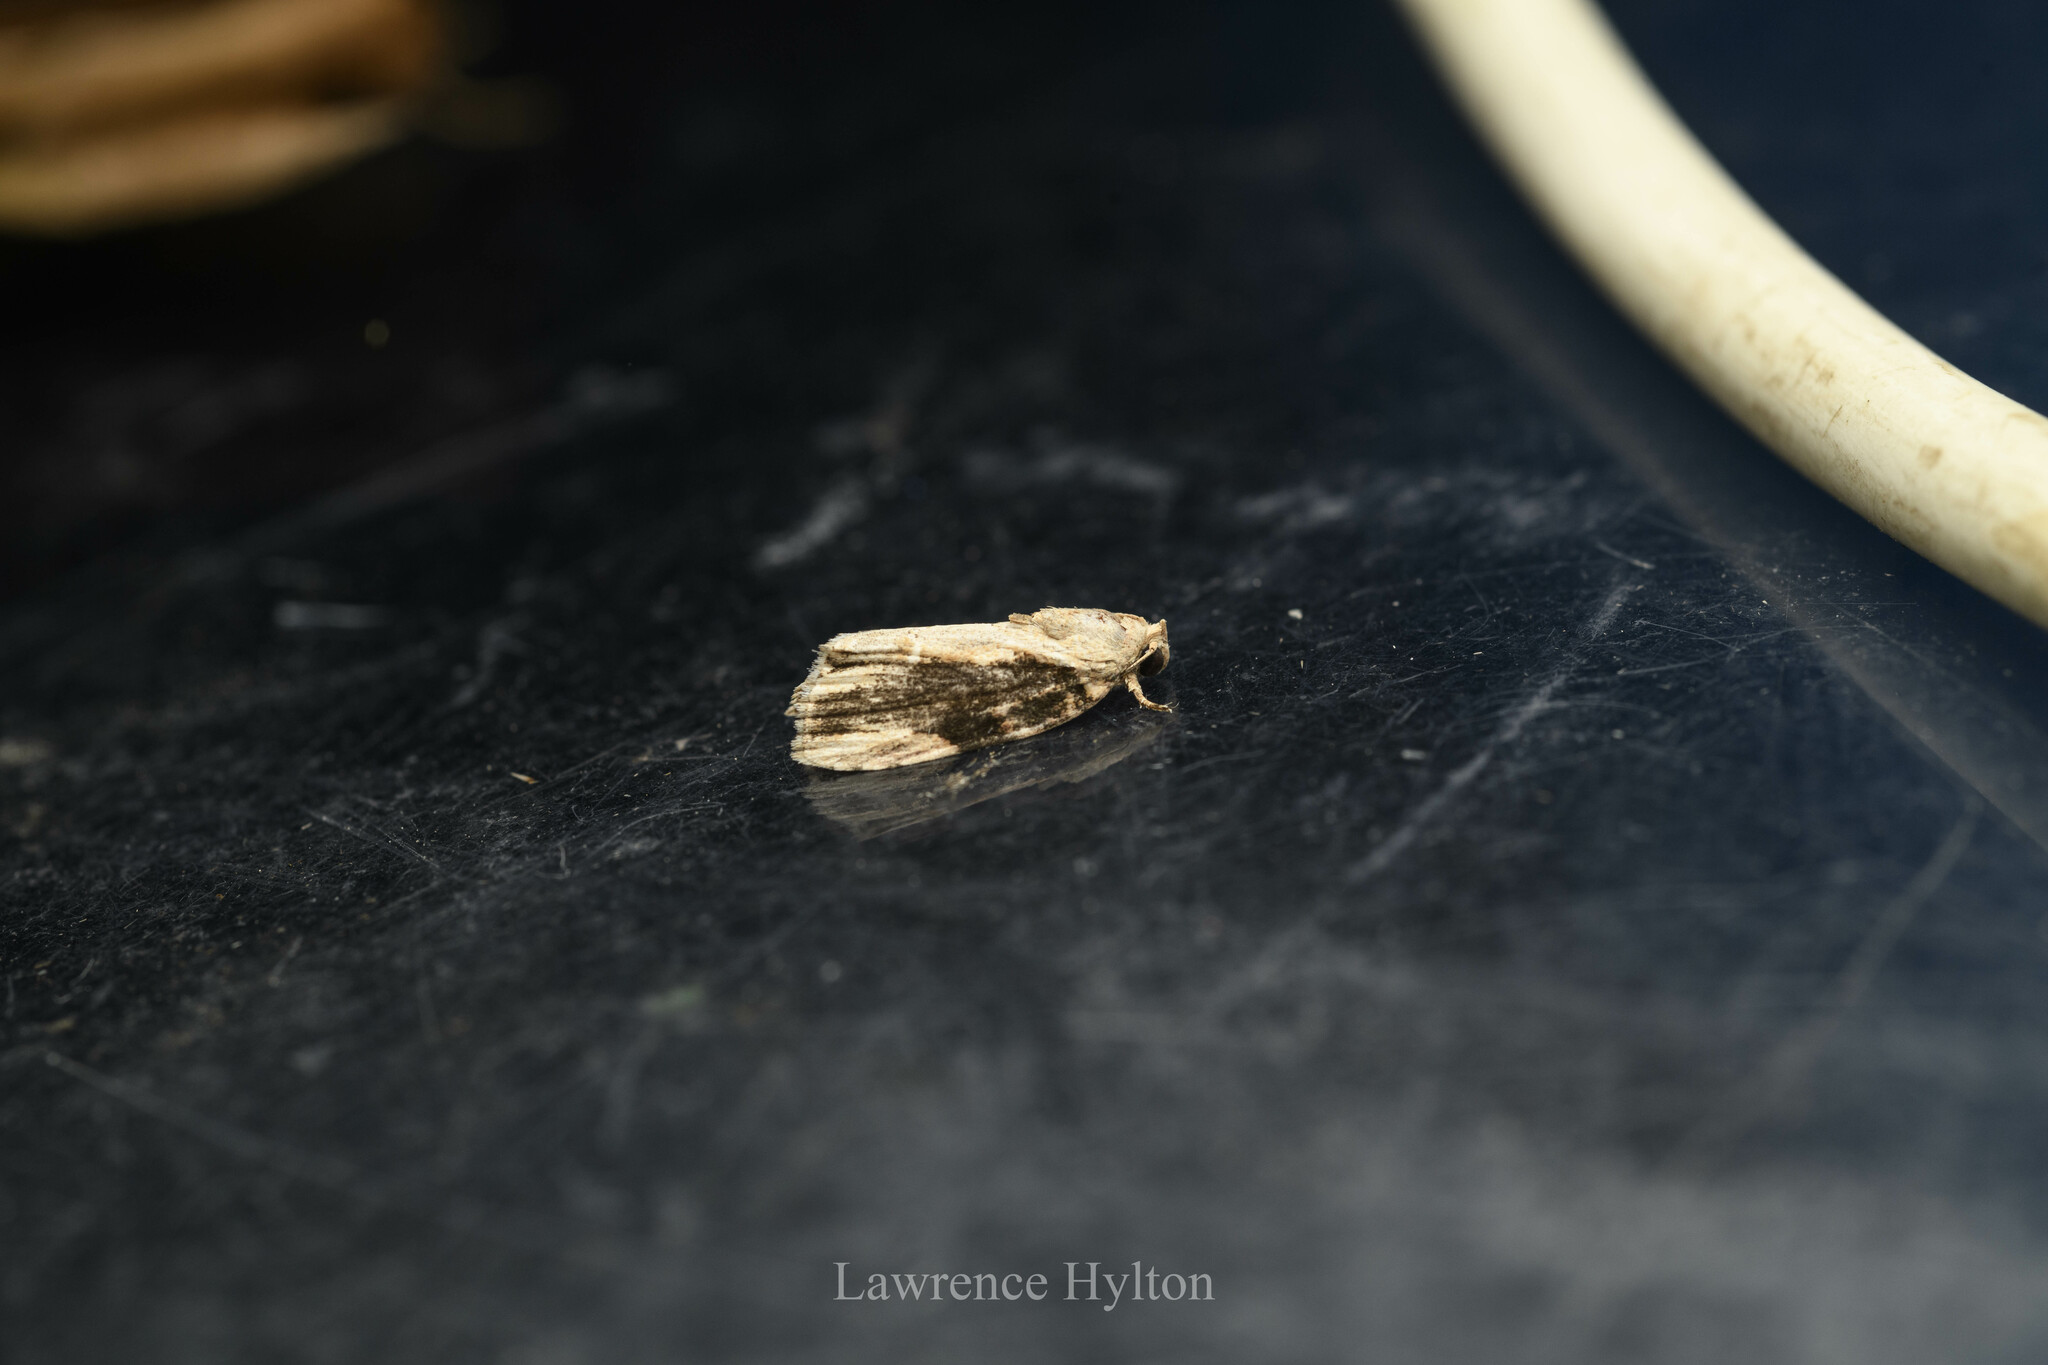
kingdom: Animalia
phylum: Arthropoda
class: Insecta
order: Lepidoptera
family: Nolidae
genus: Etanna
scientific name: Etanna breviuscula
